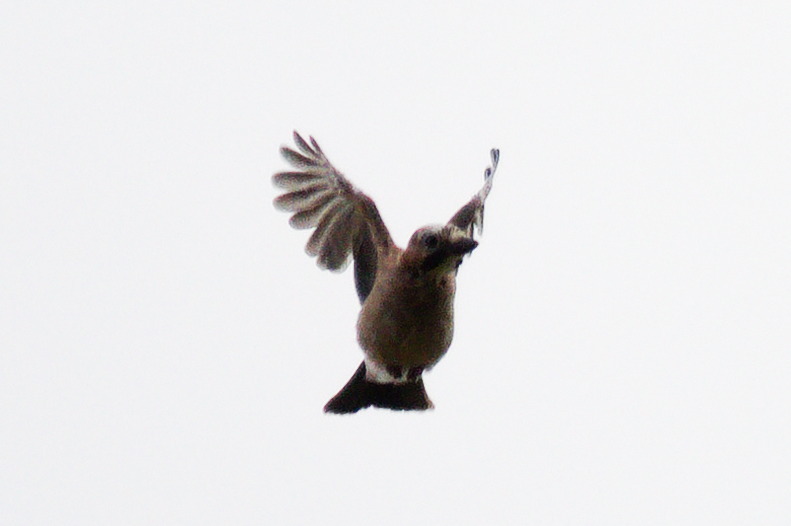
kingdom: Animalia
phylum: Chordata
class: Aves
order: Passeriformes
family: Corvidae
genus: Garrulus
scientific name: Garrulus glandarius
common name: Eurasian jay
